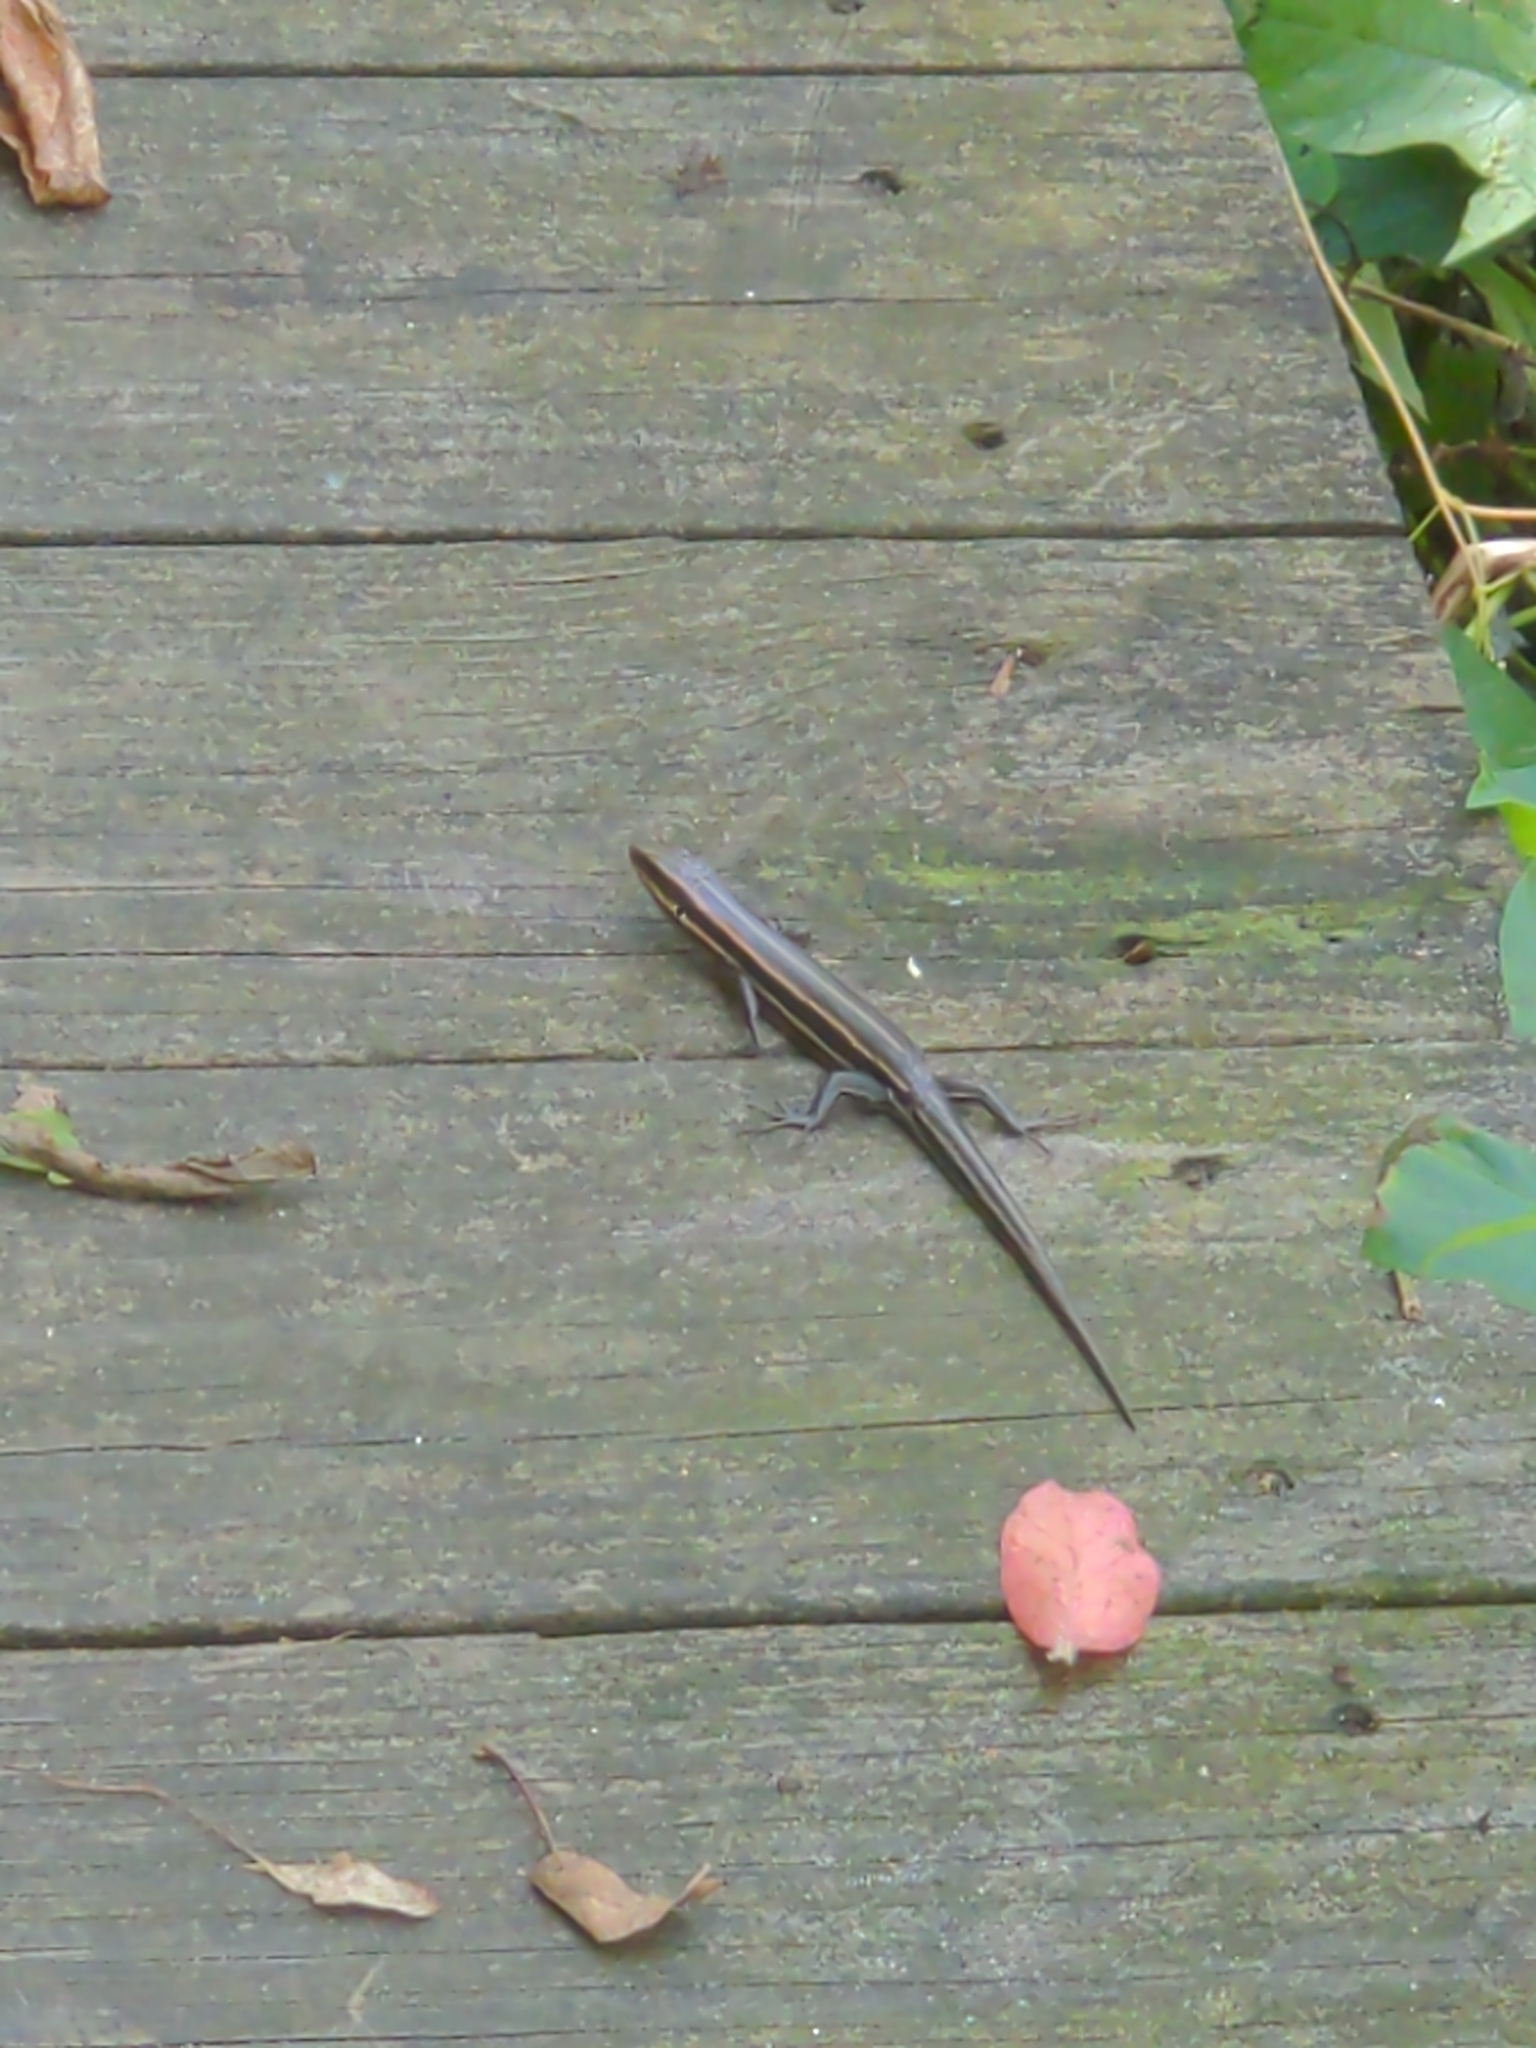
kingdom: Animalia
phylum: Chordata
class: Squamata
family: Scincidae
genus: Plestiodon
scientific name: Plestiodon fasciatus
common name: Five-lined skink
